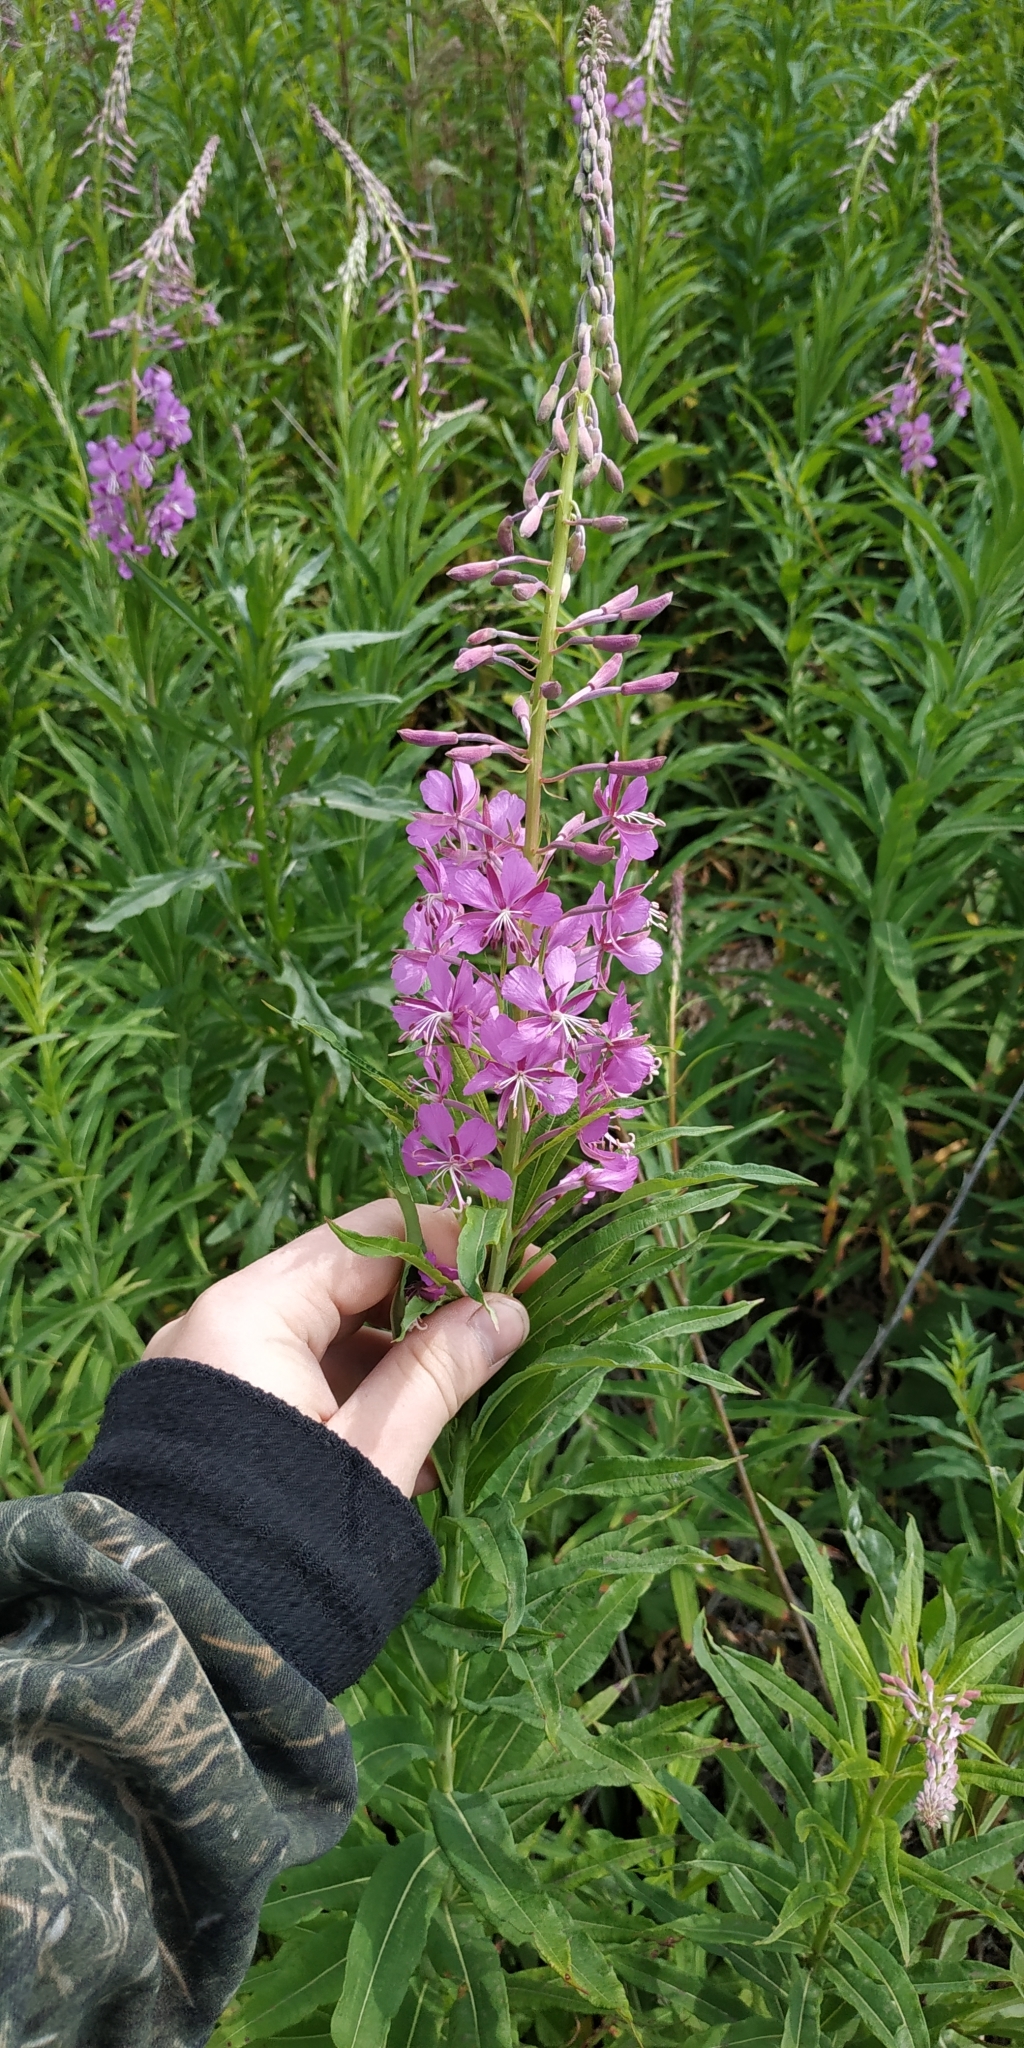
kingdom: Plantae
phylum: Tracheophyta
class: Magnoliopsida
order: Myrtales
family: Onagraceae
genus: Chamaenerion
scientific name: Chamaenerion angustifolium
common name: Fireweed
